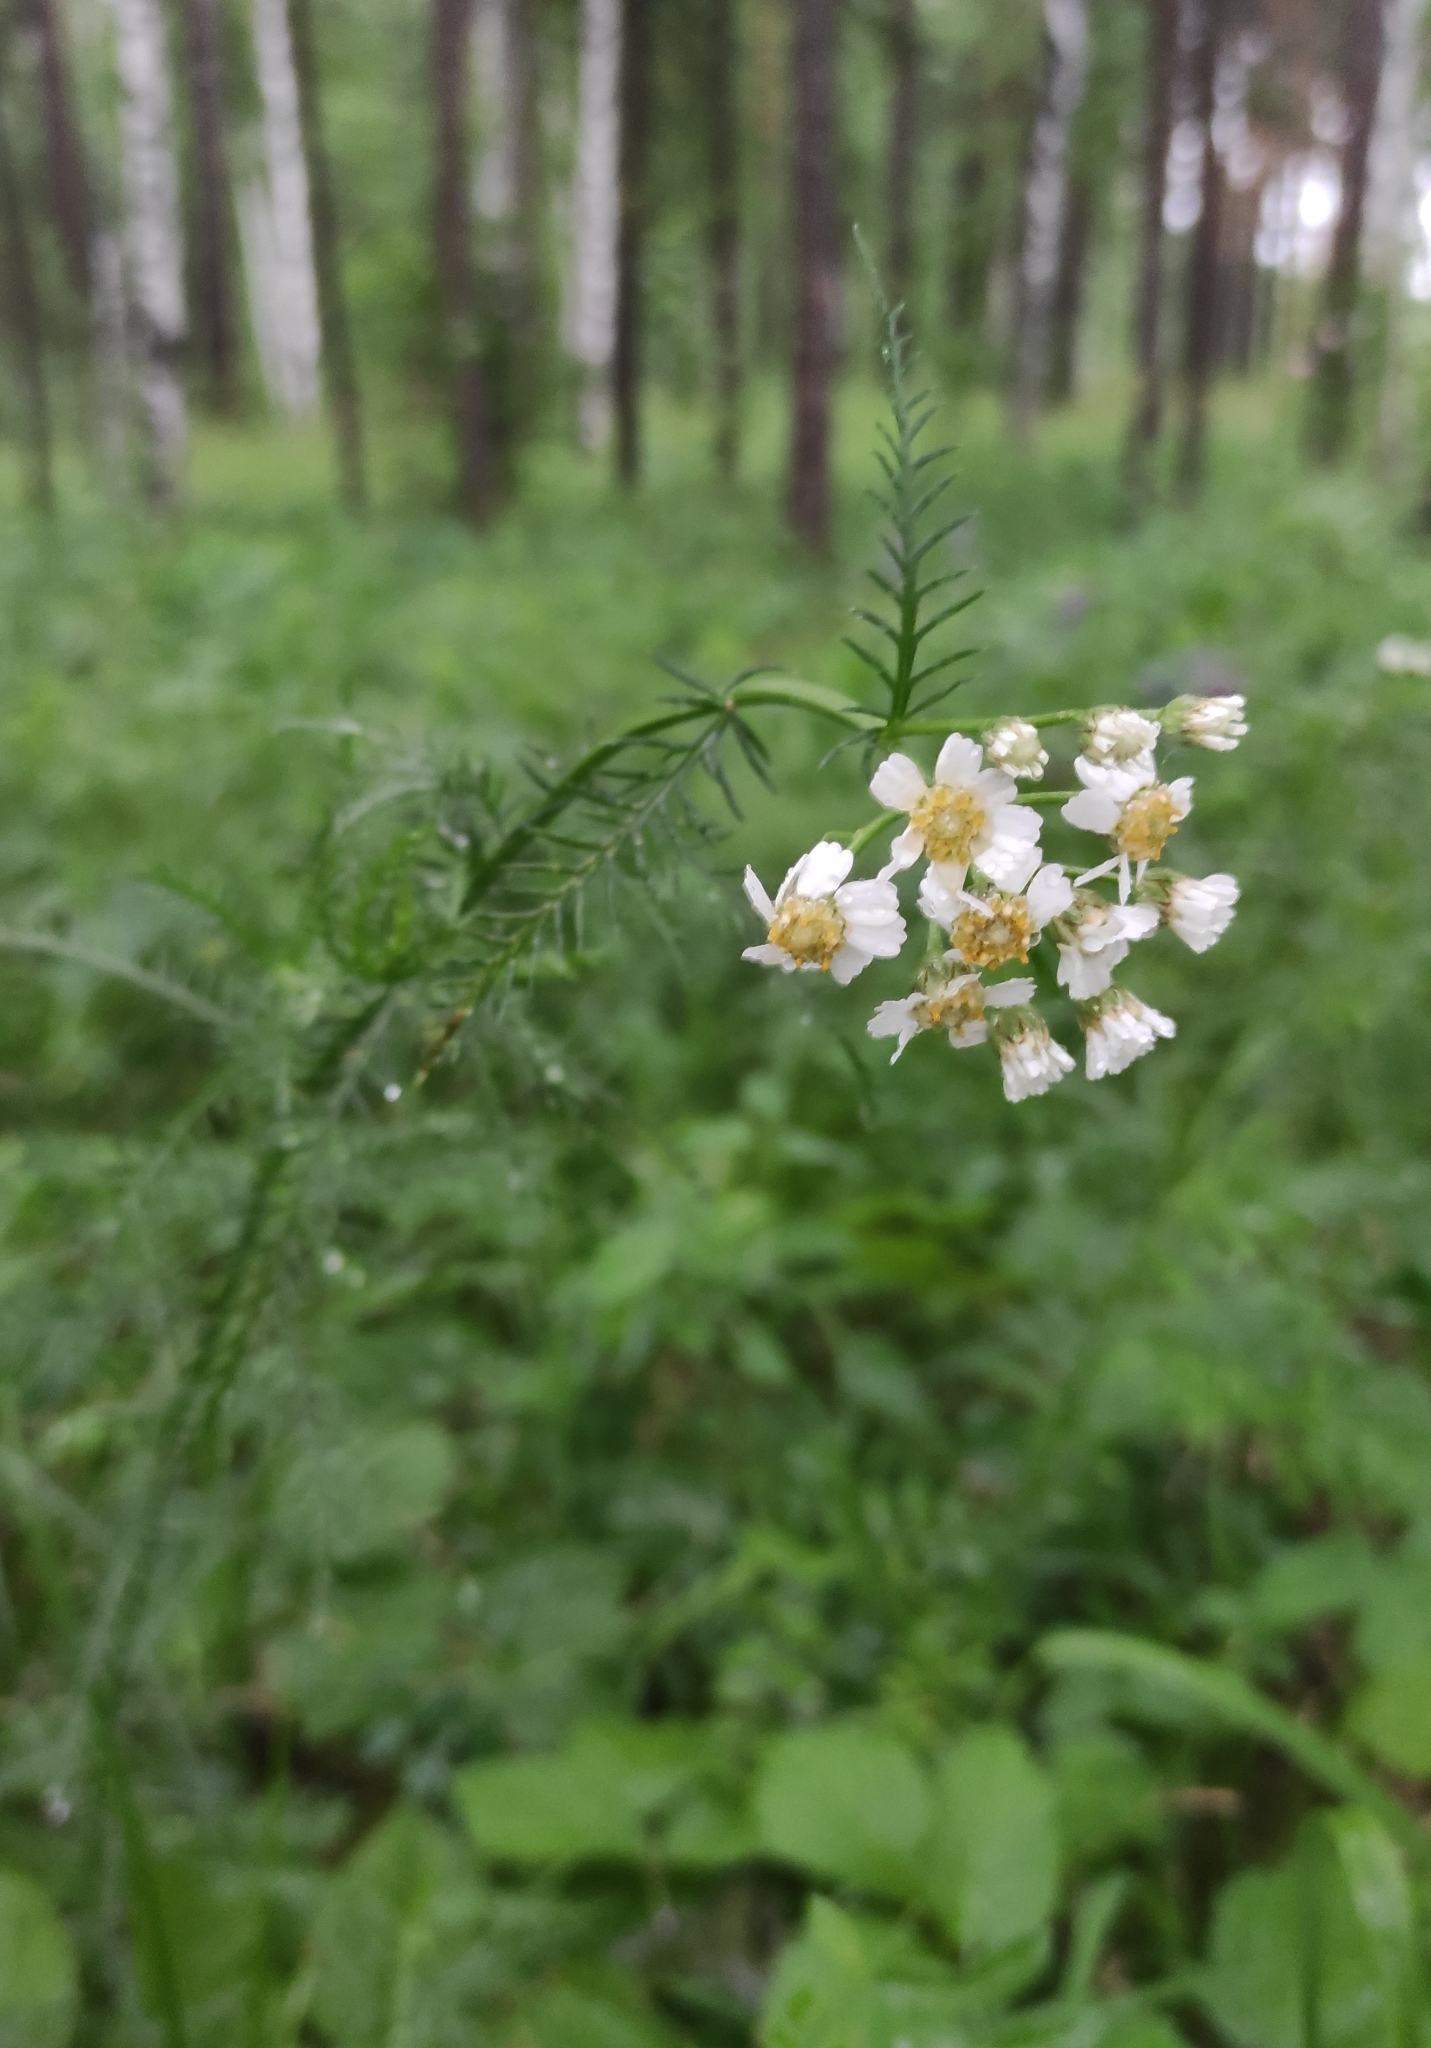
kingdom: Plantae
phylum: Tracheophyta
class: Magnoliopsida
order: Asterales
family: Asteraceae
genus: Achillea
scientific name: Achillea impatiens
